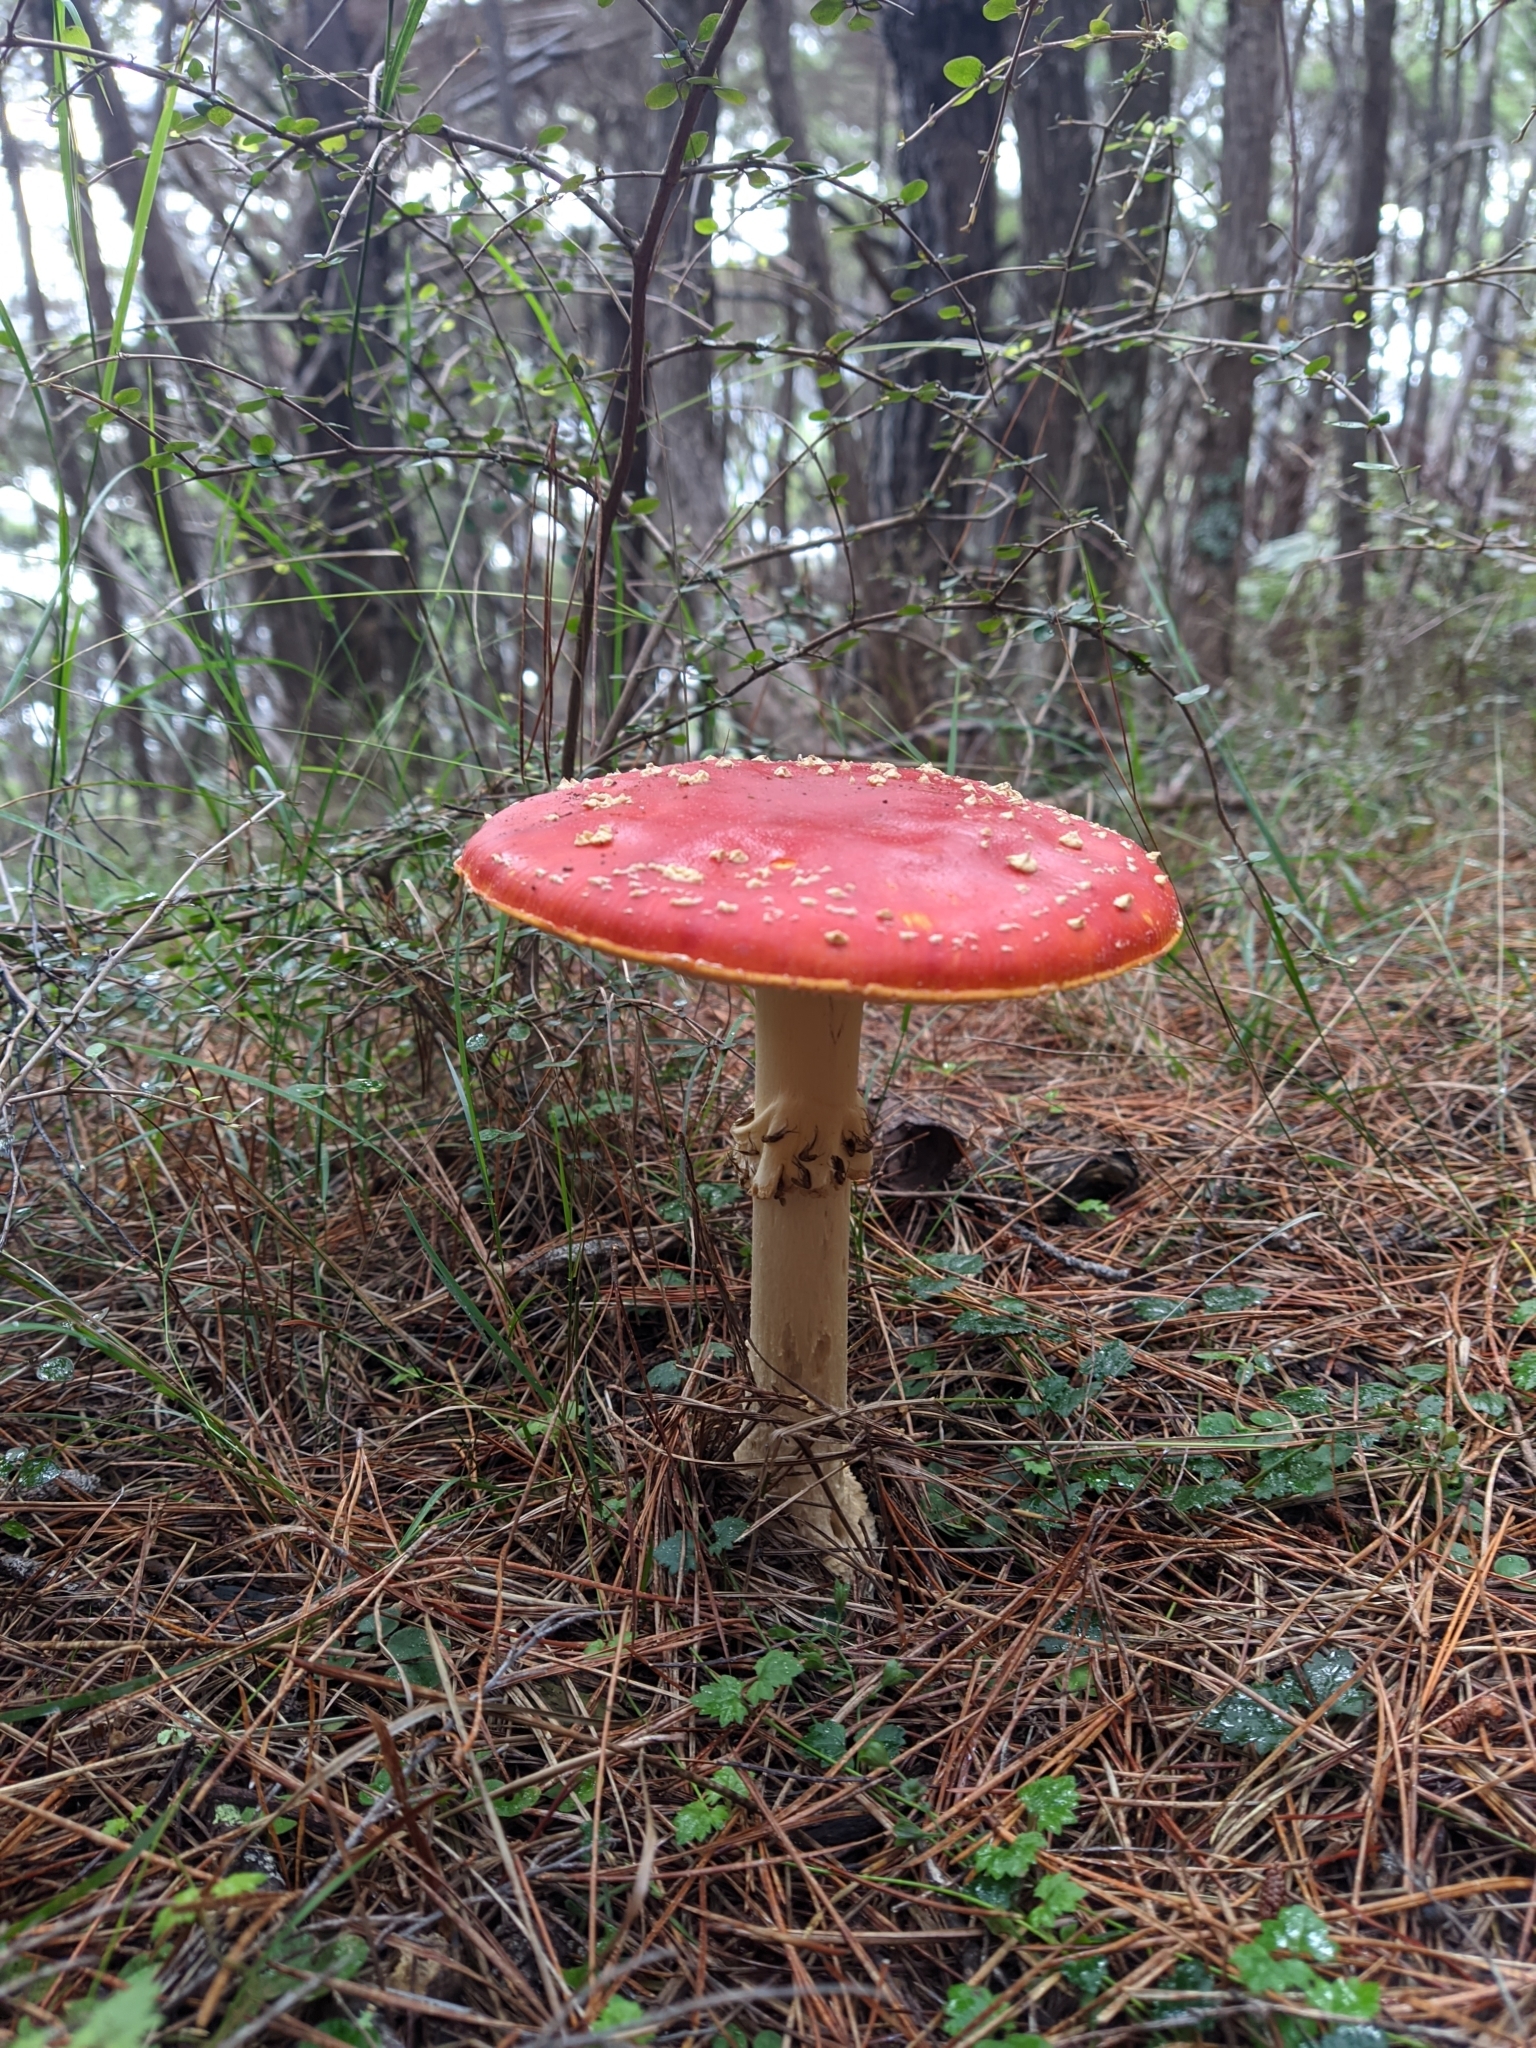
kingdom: Fungi
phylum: Basidiomycota
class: Agaricomycetes
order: Agaricales
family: Amanitaceae
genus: Amanita
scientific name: Amanita muscaria
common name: Fly agaric
